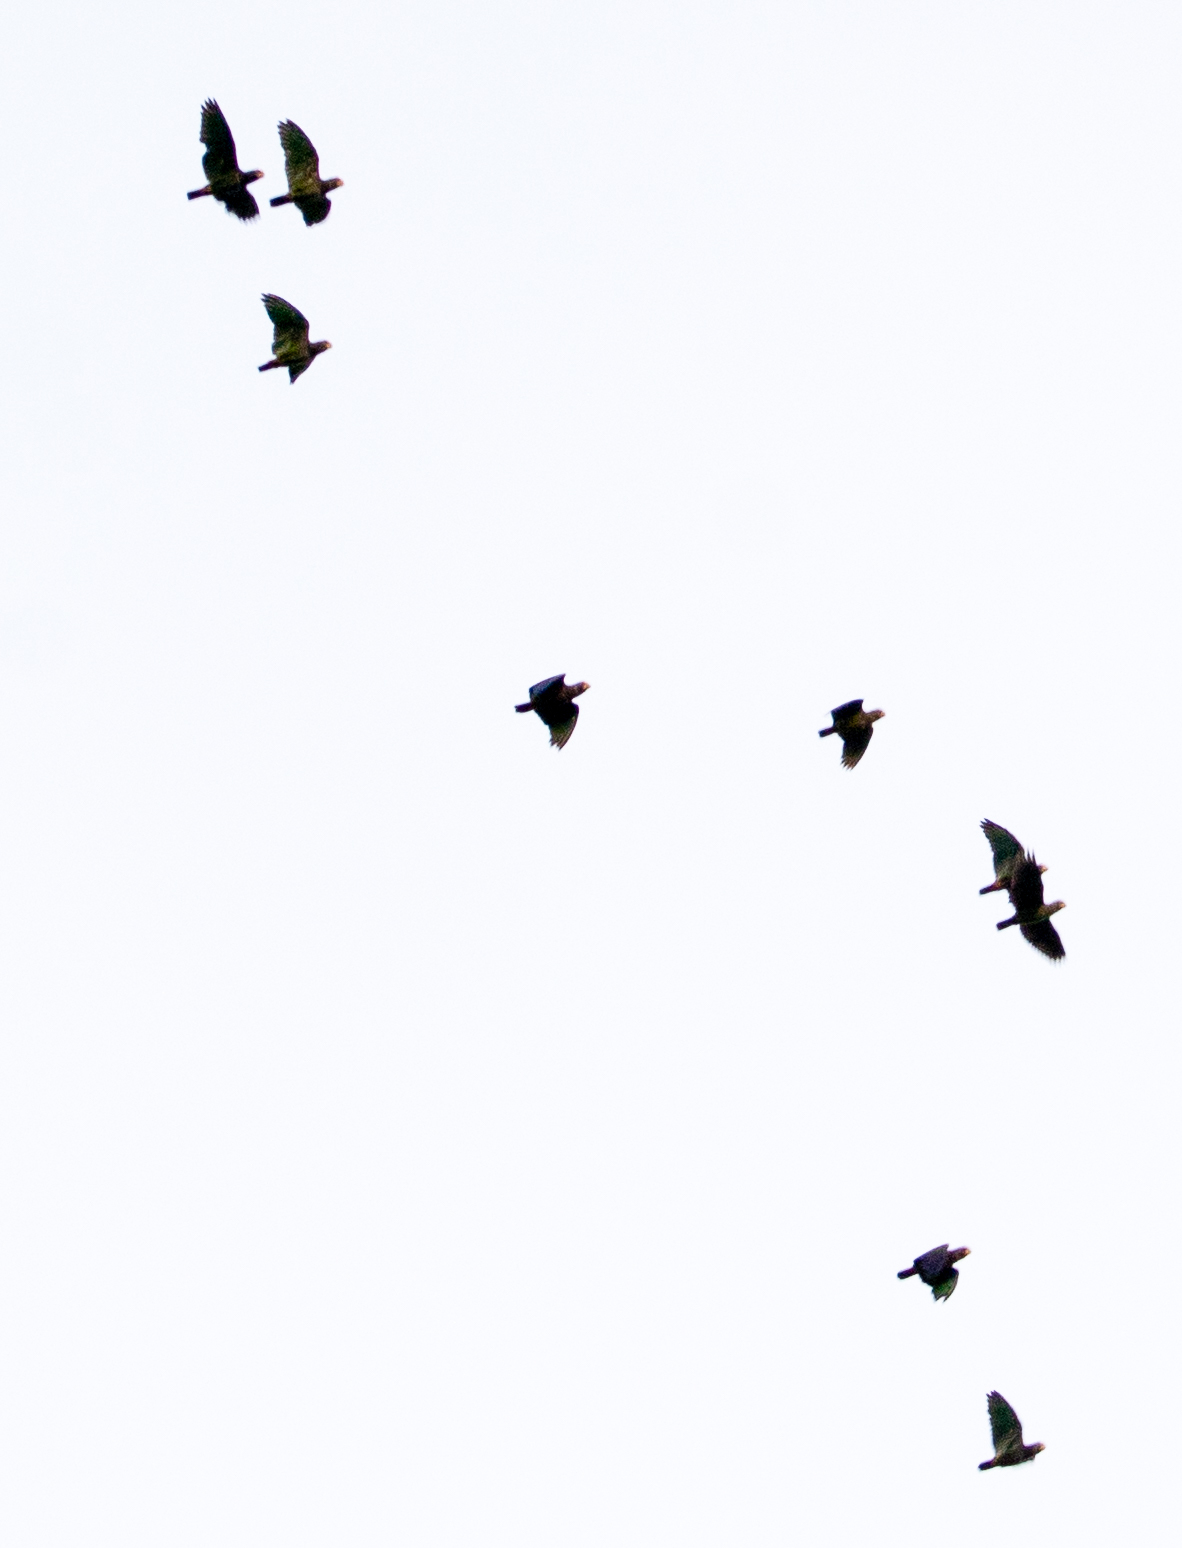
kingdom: Animalia
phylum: Chordata
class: Aves
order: Psittaciformes
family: Psittacidae
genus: Pionus
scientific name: Pionus senilis
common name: White-crowned parrot
